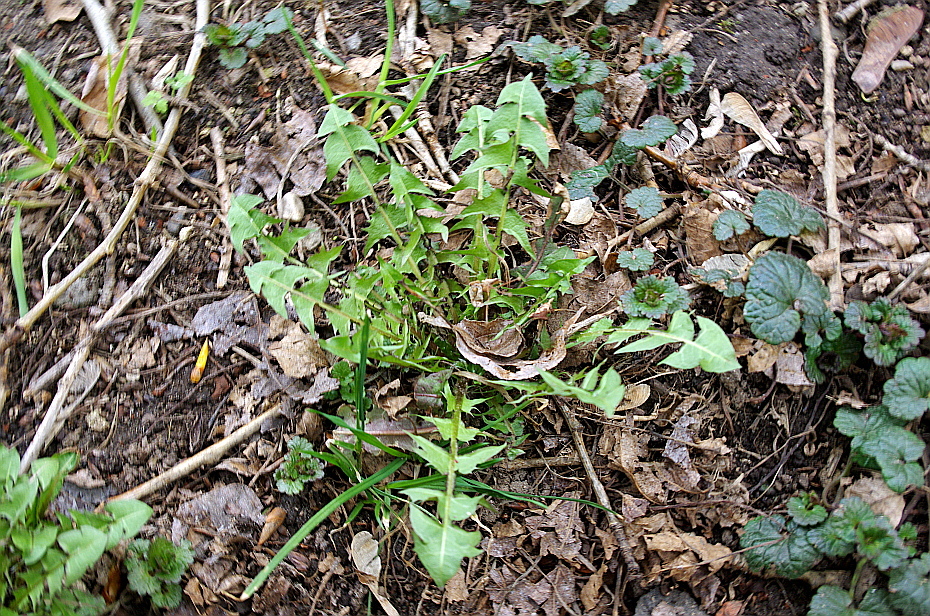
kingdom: Plantae
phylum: Tracheophyta
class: Magnoliopsida
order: Asterales
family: Asteraceae
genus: Taraxacum
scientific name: Taraxacum officinale
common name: Common dandelion
